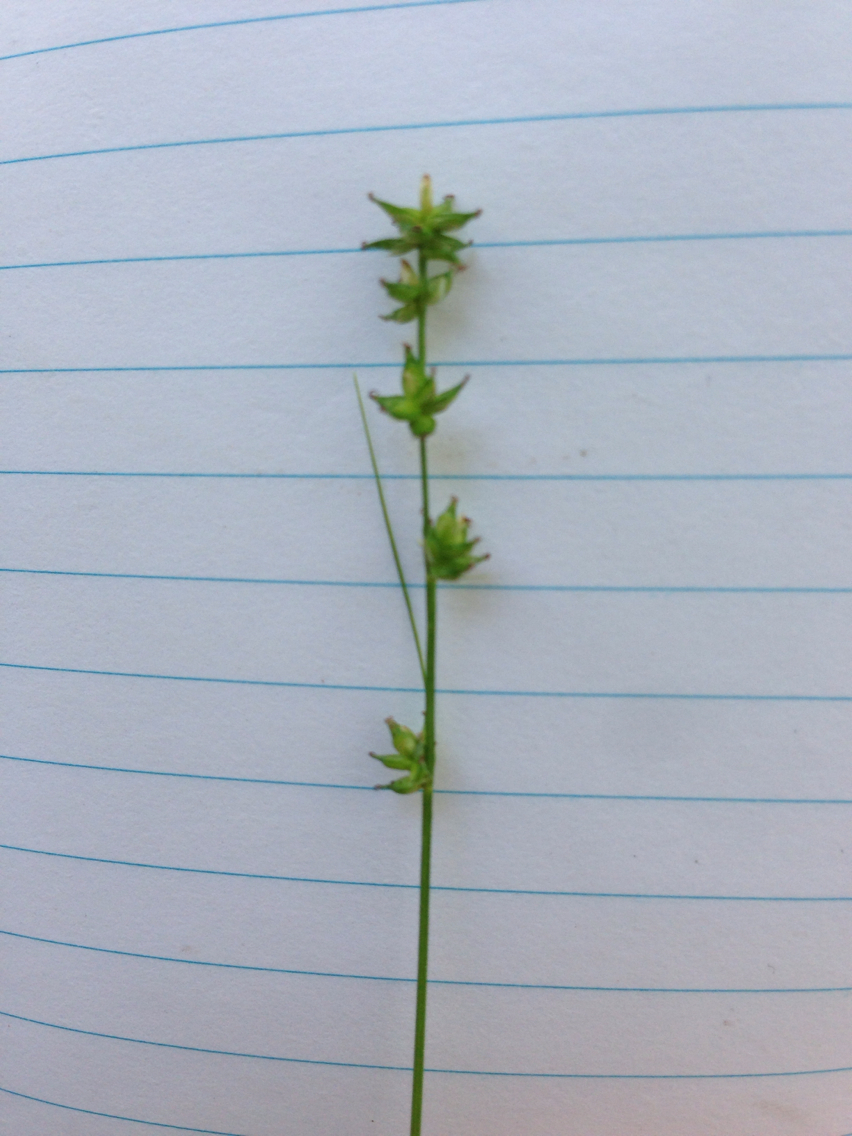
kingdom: Plantae
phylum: Tracheophyta
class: Liliopsida
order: Poales
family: Cyperaceae
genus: Carex
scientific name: Carex rosea
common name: Curly-styled wood sedge
